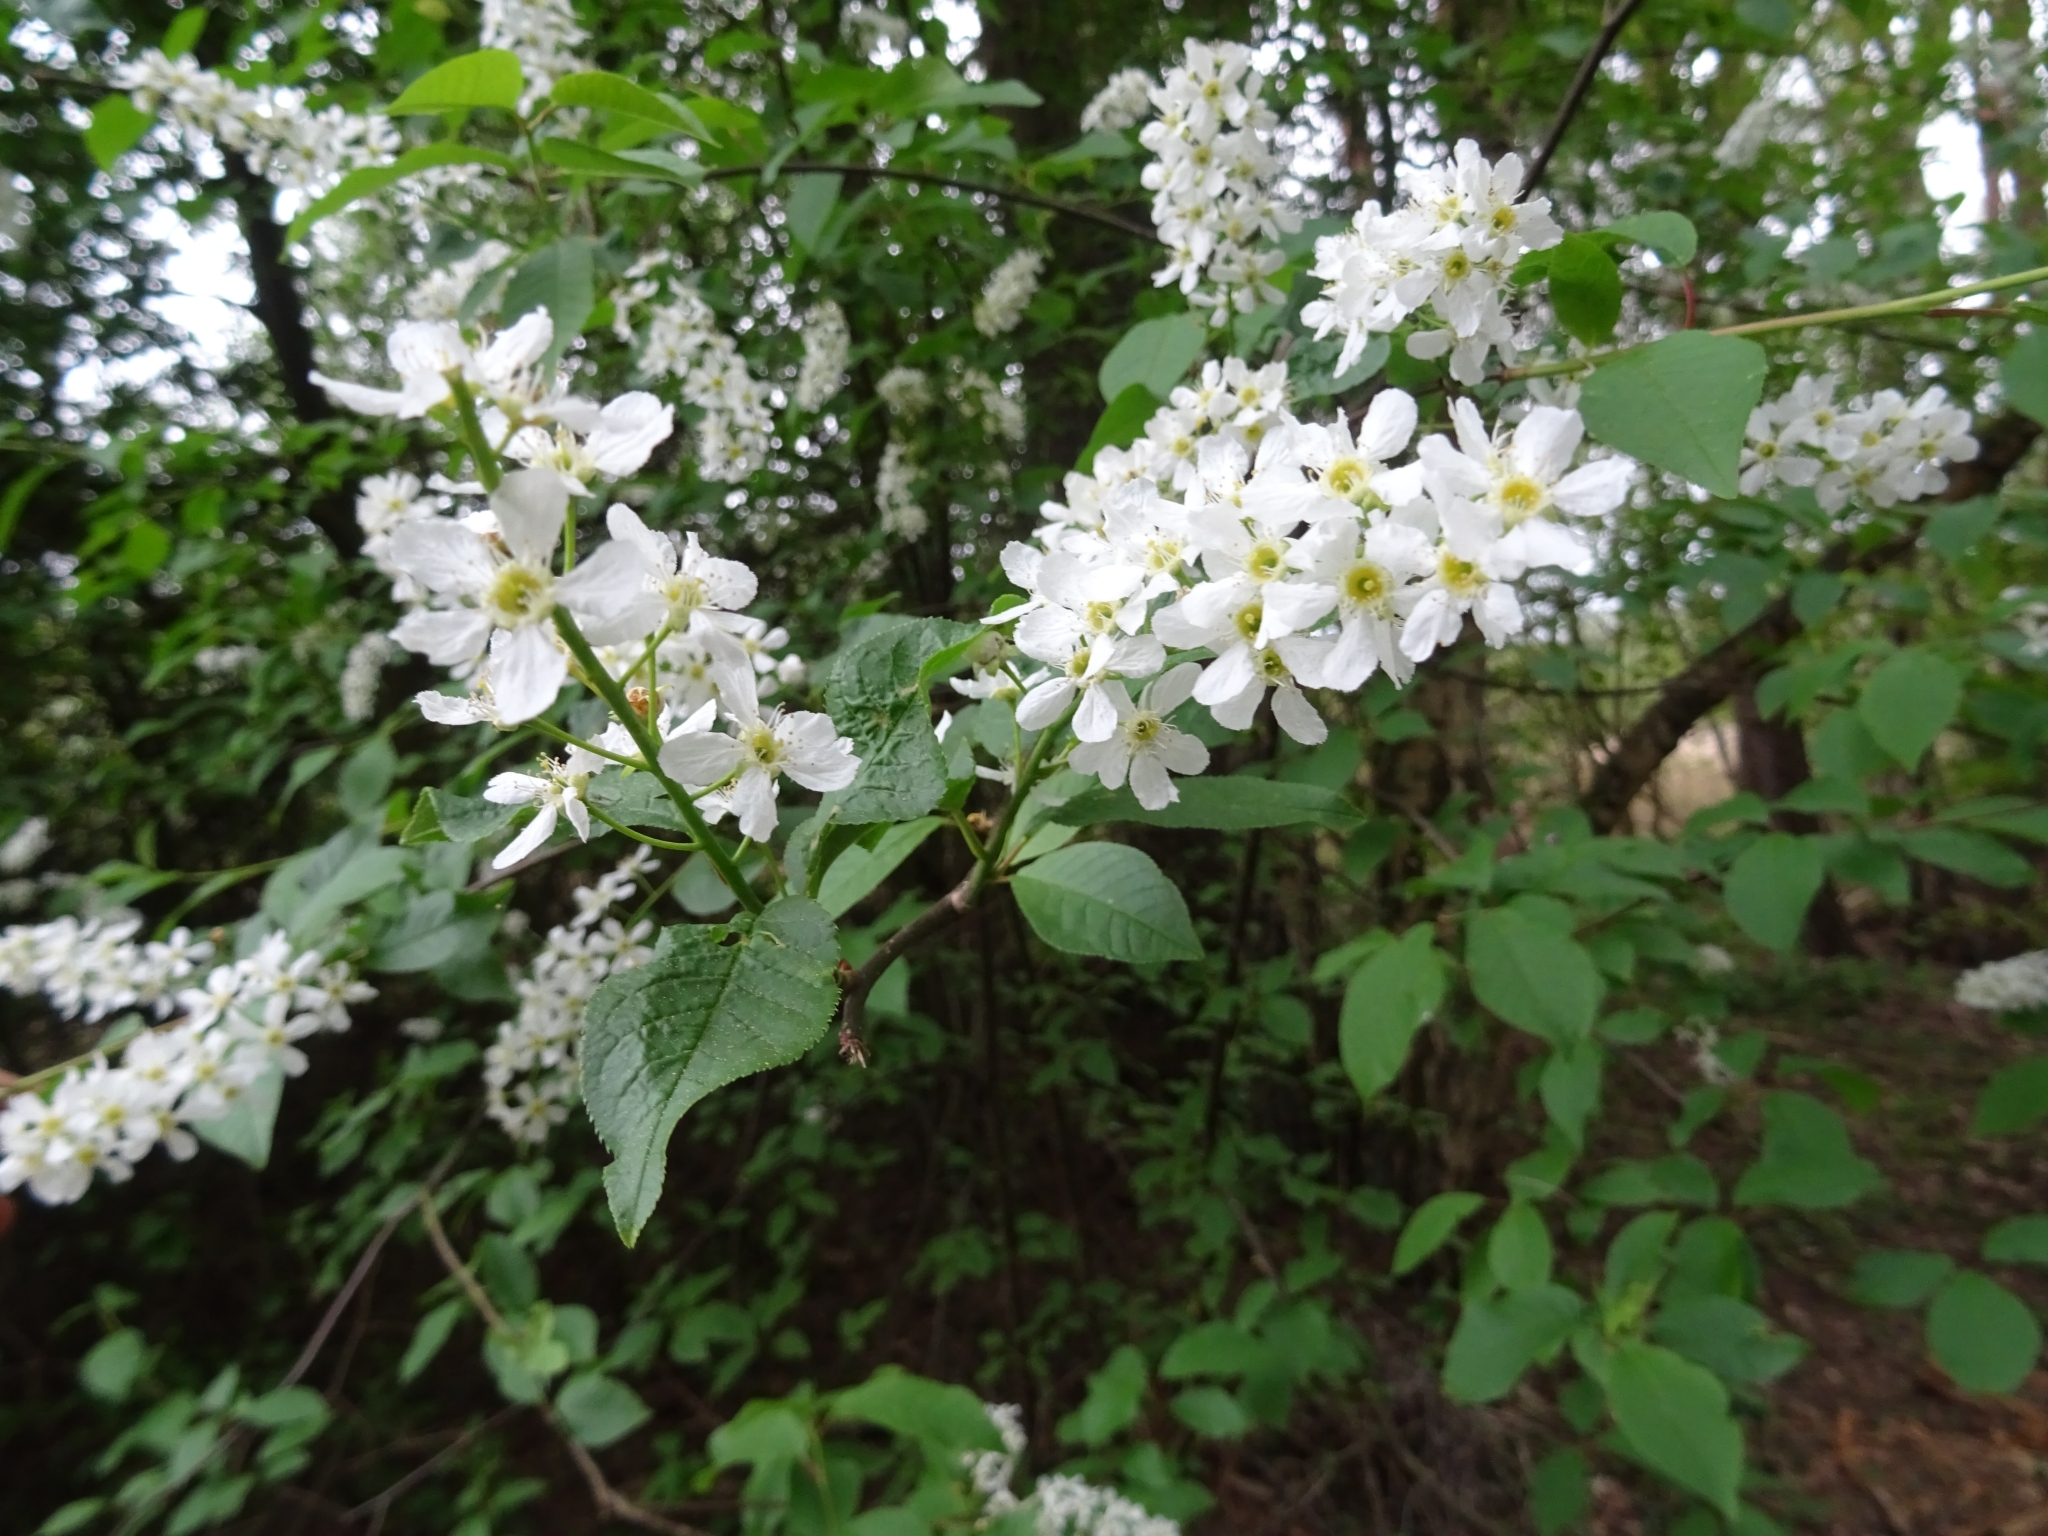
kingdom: Plantae
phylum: Tracheophyta
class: Magnoliopsida
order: Rosales
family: Rosaceae
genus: Prunus
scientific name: Prunus padus
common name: Bird cherry
